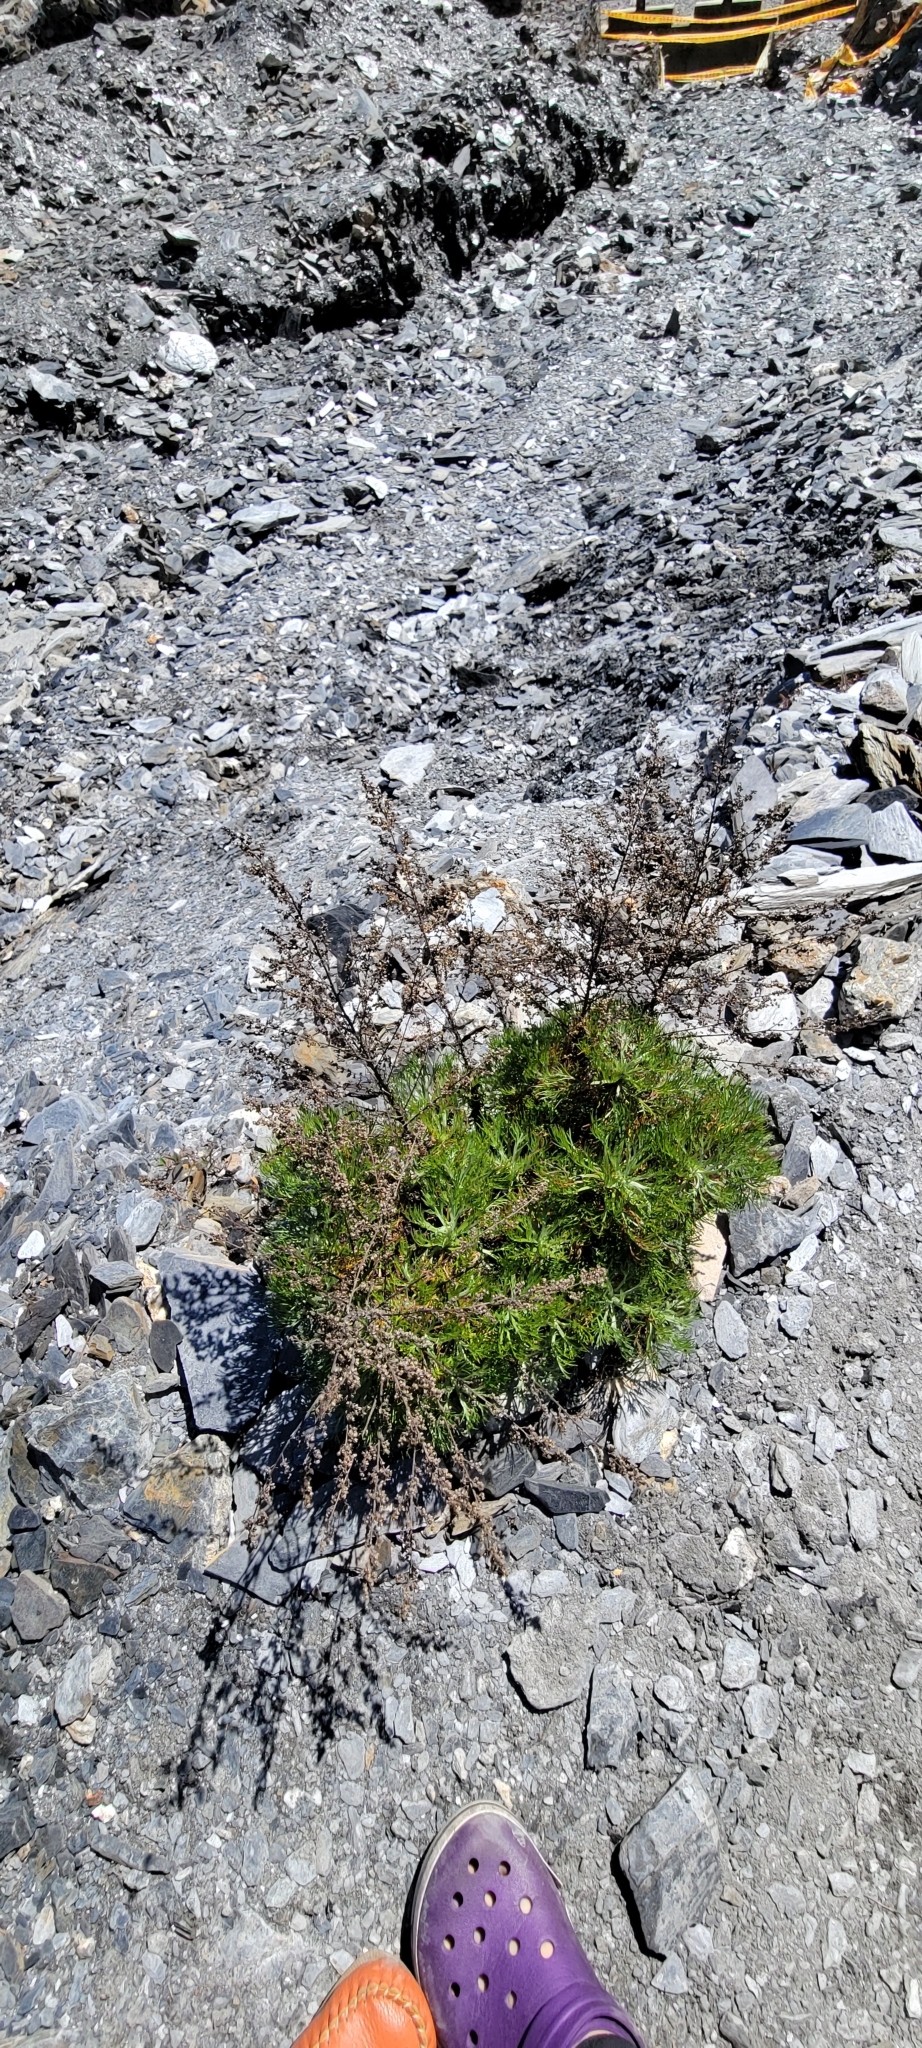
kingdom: Plantae
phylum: Tracheophyta
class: Magnoliopsida
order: Asterales
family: Asteraceae
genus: Artemisia
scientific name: Artemisia morrisonensis
